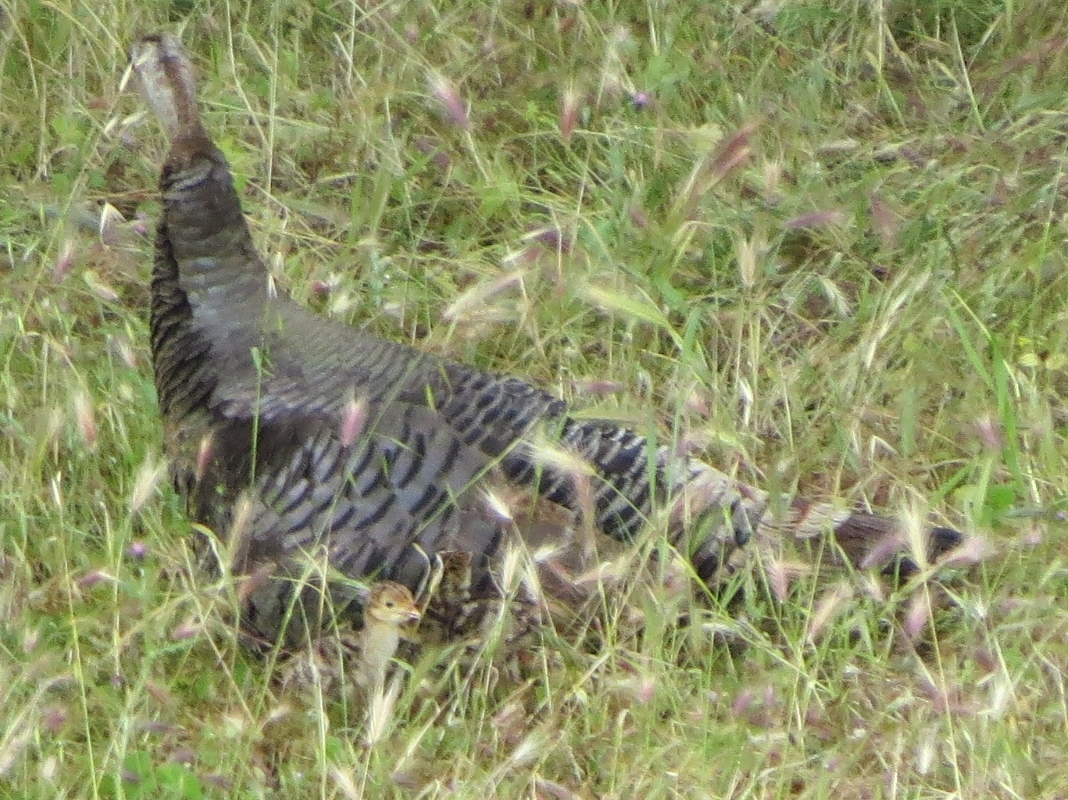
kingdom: Animalia
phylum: Chordata
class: Aves
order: Galliformes
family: Phasianidae
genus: Meleagris
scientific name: Meleagris gallopavo
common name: Wild turkey
